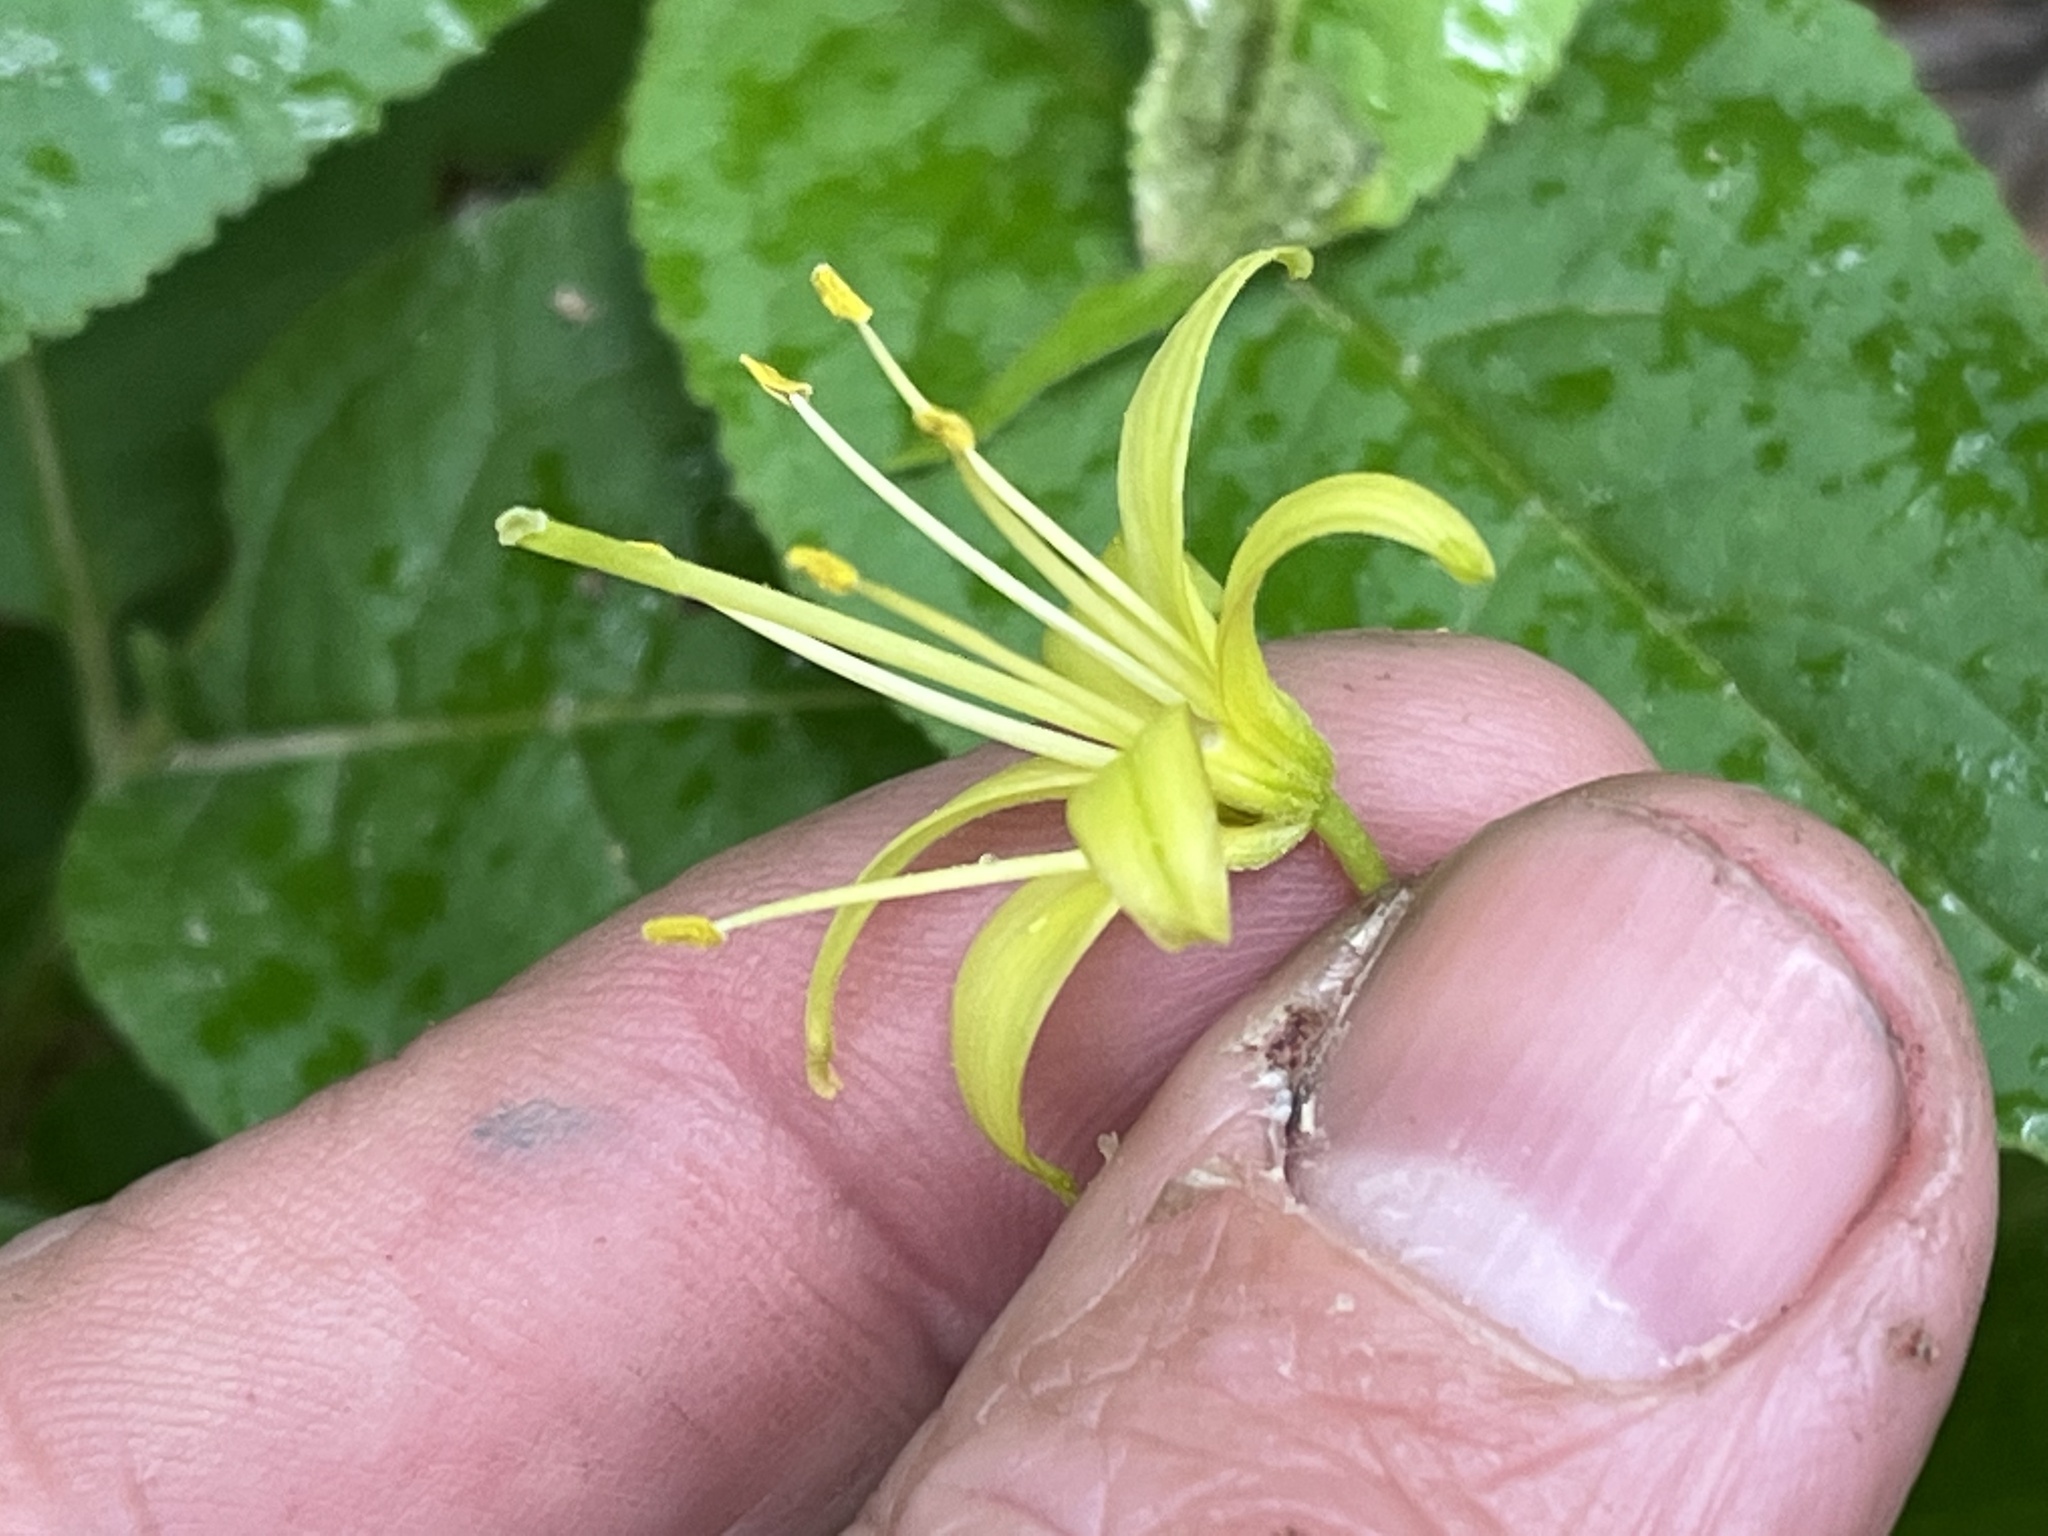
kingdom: Plantae
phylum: Tracheophyta
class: Liliopsida
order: Liliales
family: Liliaceae
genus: Clintonia
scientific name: Clintonia borealis
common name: Yellow clintonia
